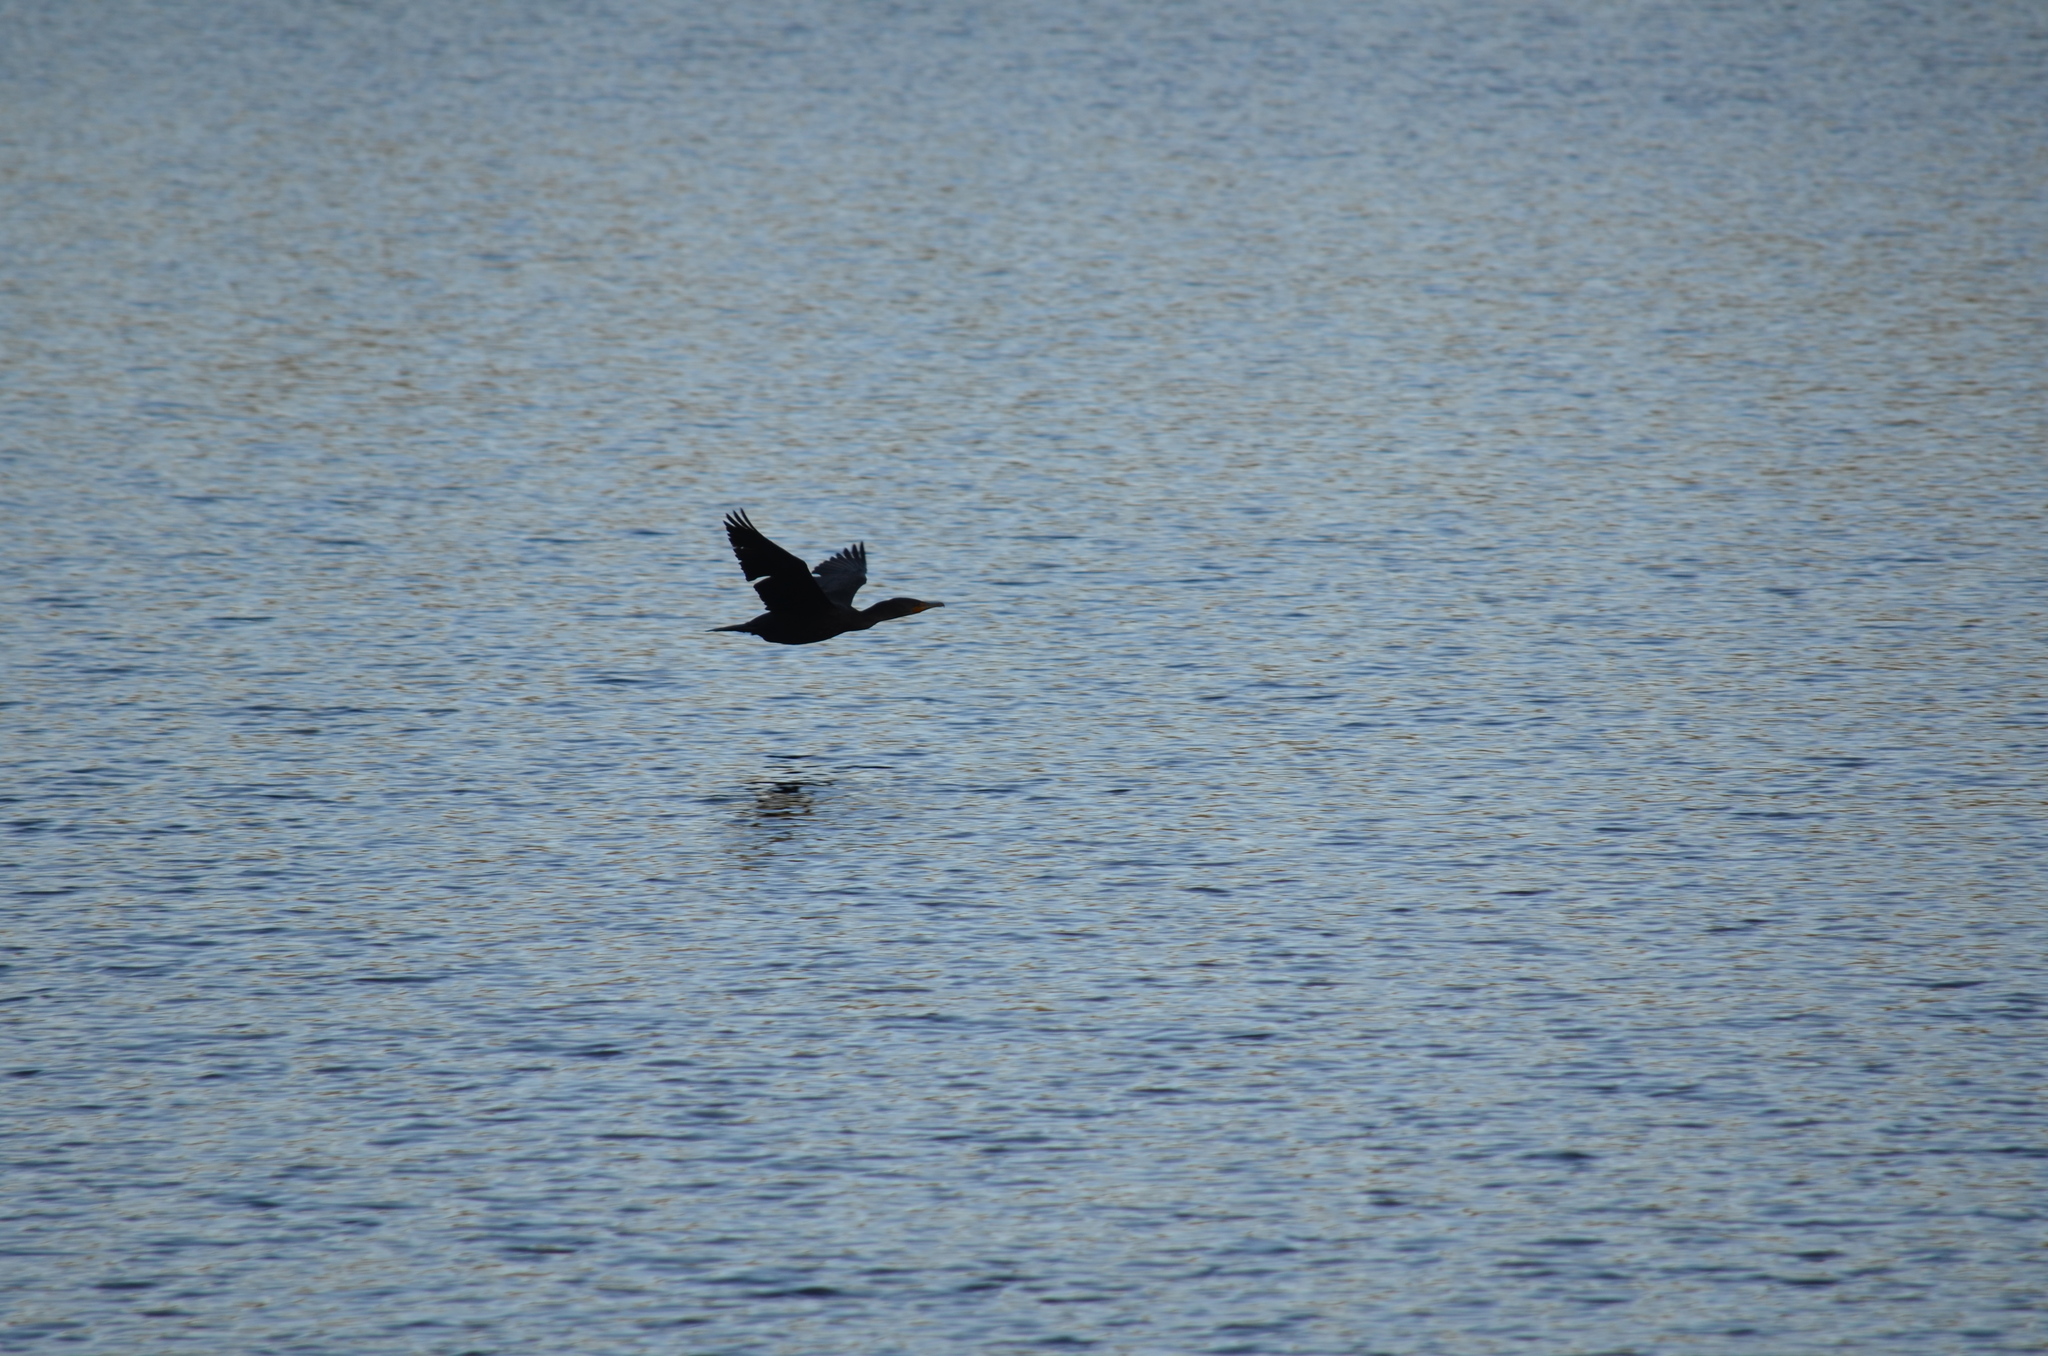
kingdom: Animalia
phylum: Chordata
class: Aves
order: Suliformes
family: Phalacrocoracidae
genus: Phalacrocorax
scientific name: Phalacrocorax auritus
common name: Double-crested cormorant
